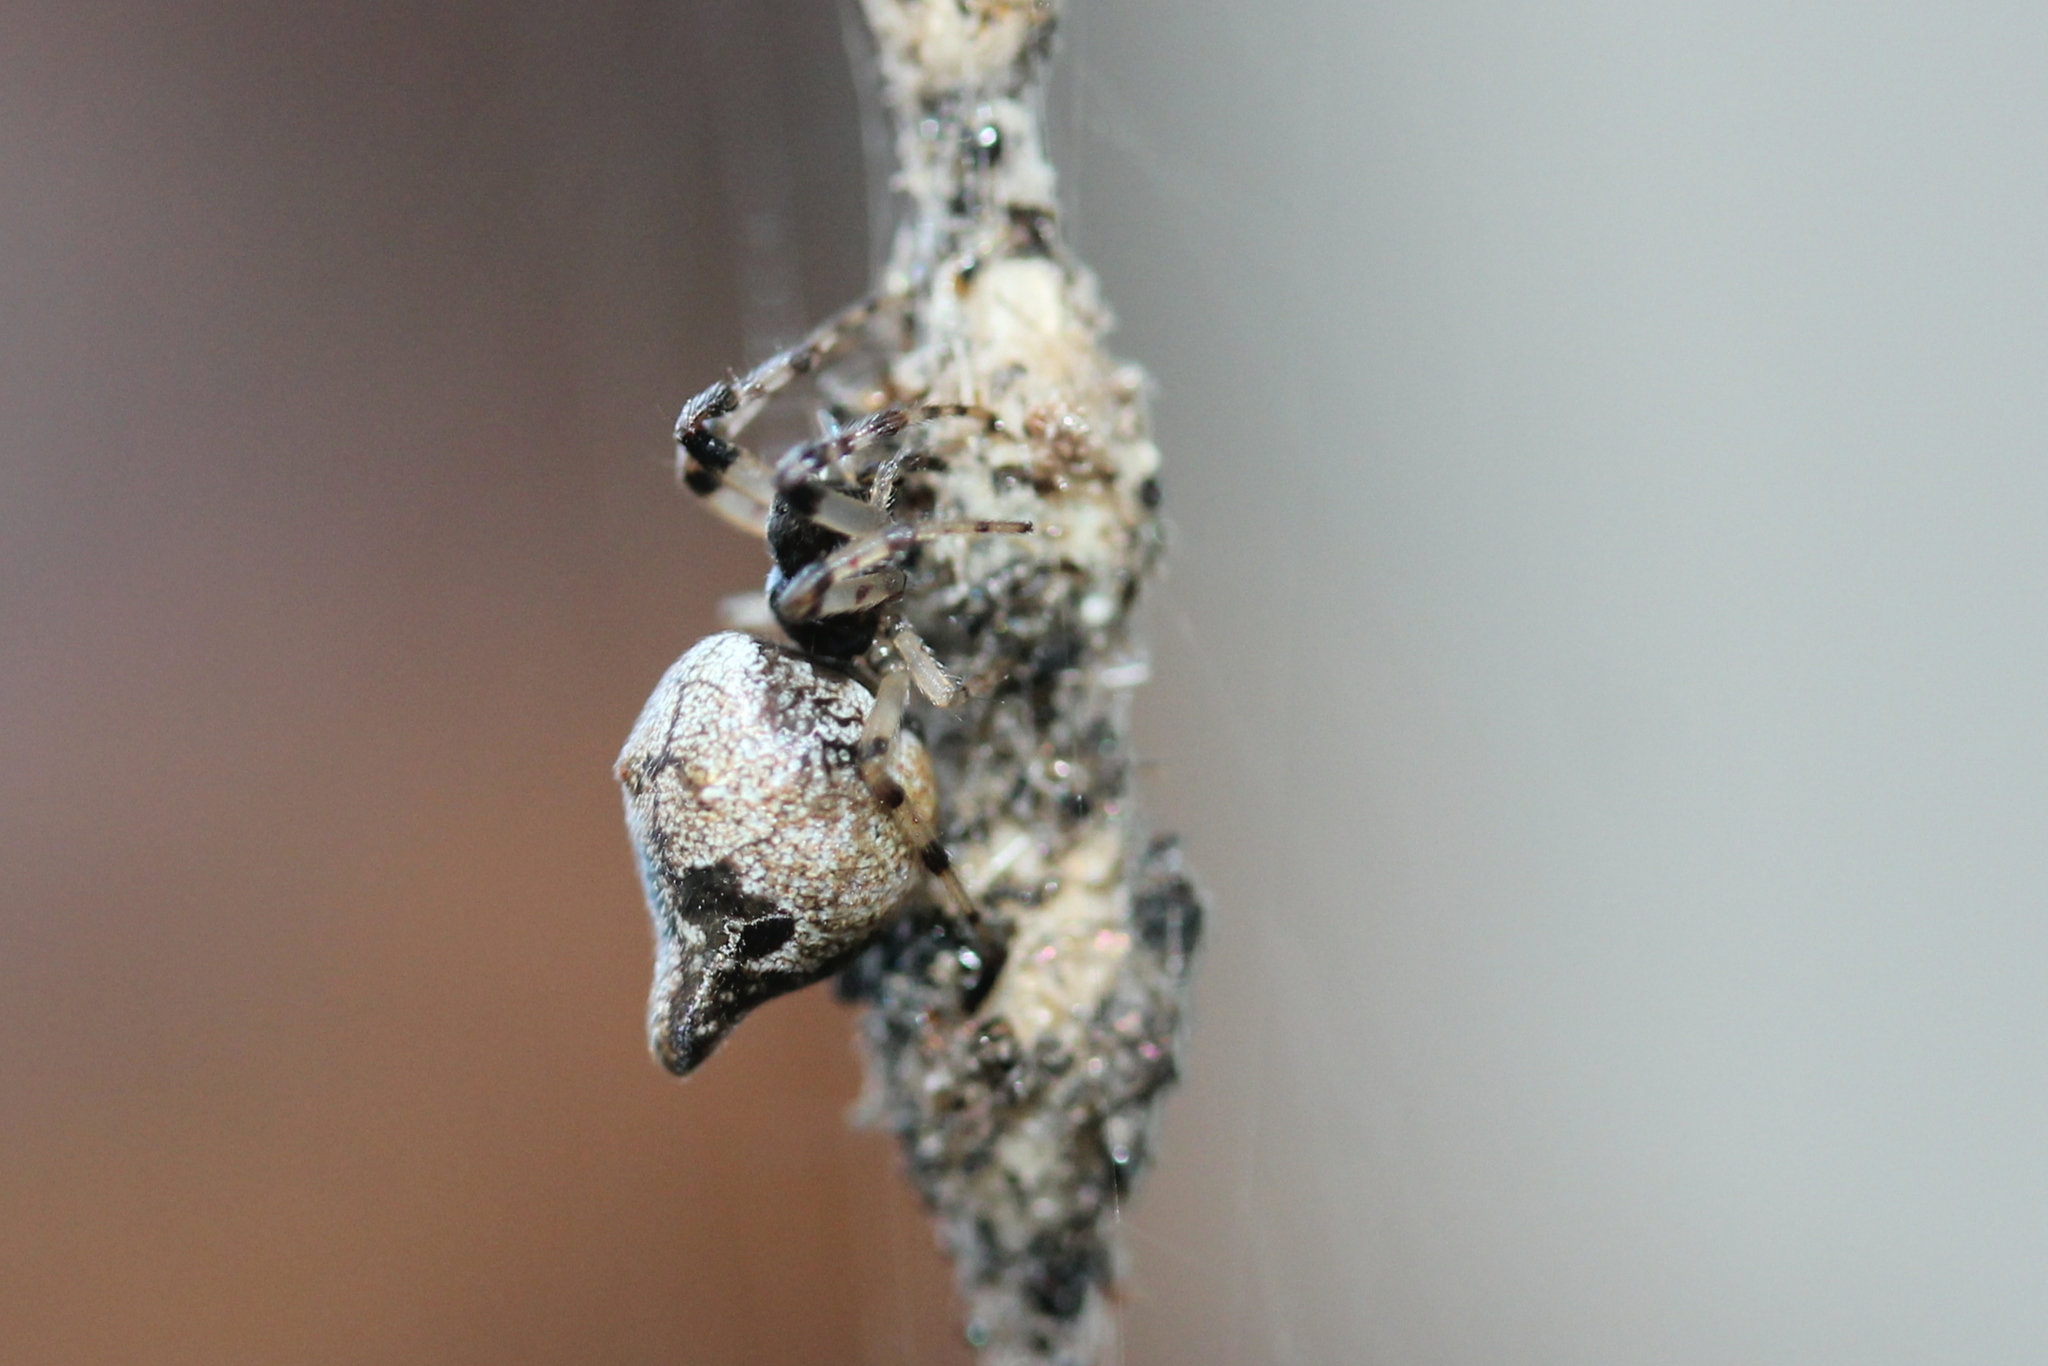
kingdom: Animalia
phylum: Arthropoda
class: Arachnida
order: Araneae
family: Araneidae
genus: Cyclosa
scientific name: Cyclosa turbinata
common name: Orb weavers
